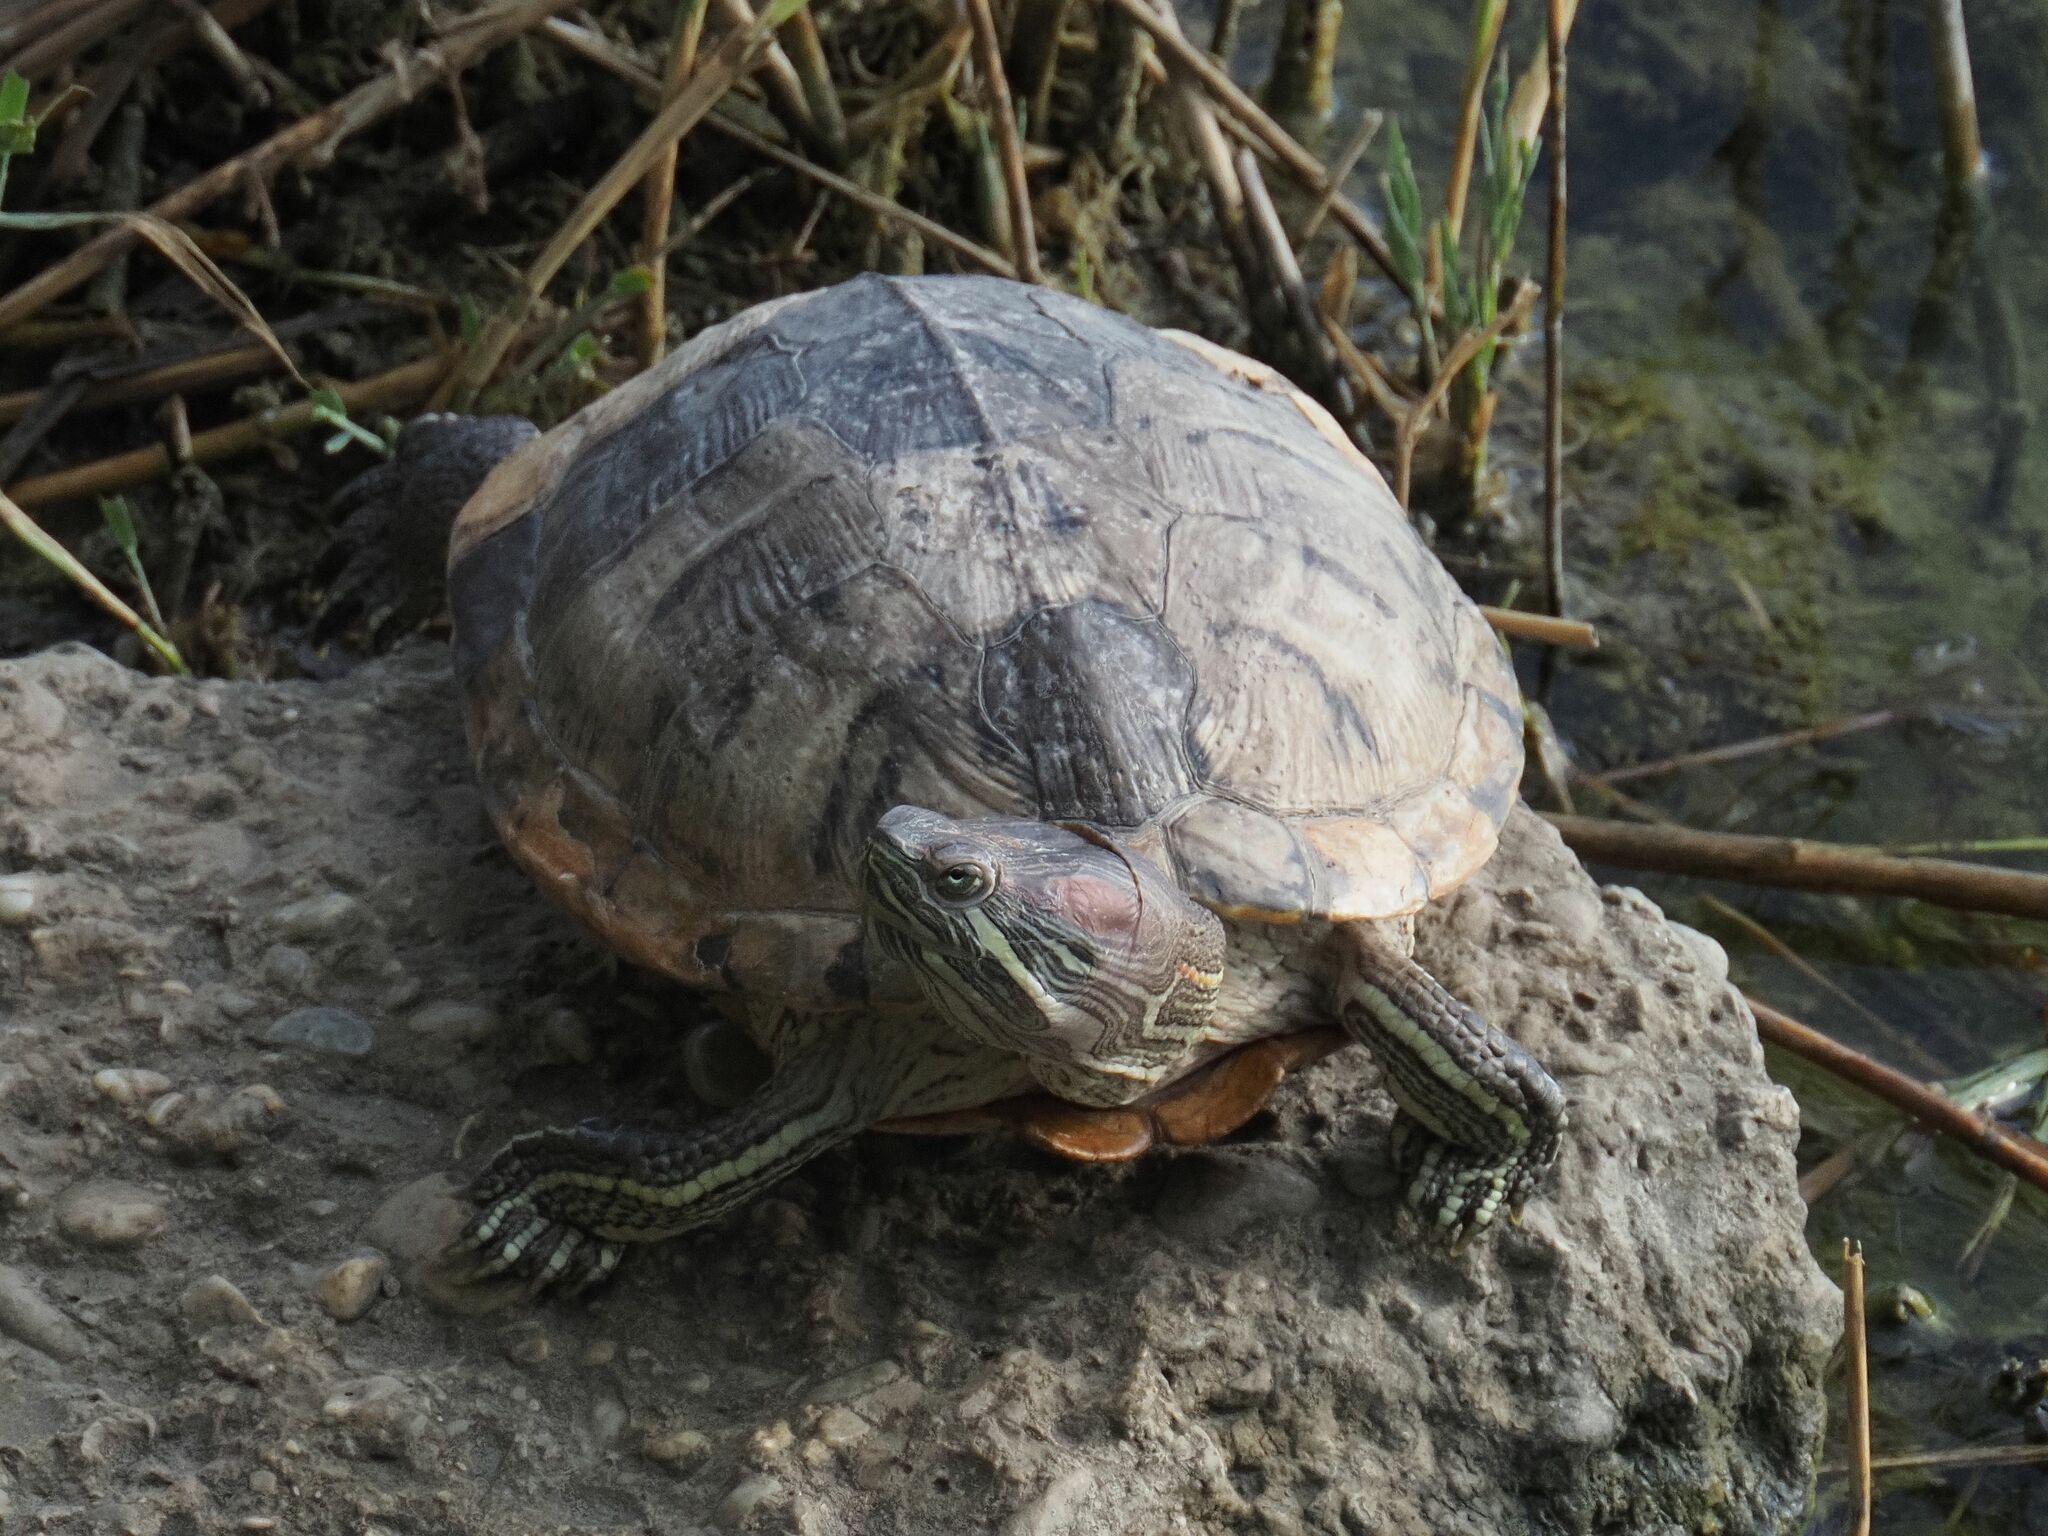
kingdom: Animalia
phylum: Chordata
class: Testudines
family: Emydidae
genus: Trachemys
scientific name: Trachemys scripta
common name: Slider
